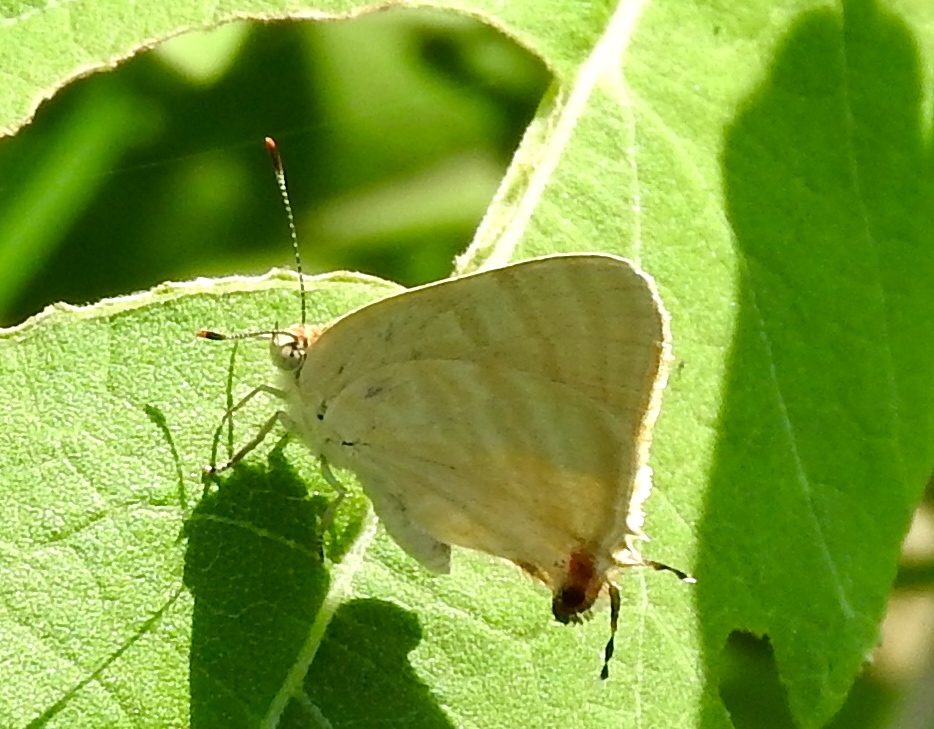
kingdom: Animalia
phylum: Arthropoda
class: Insecta
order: Lepidoptera
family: Lycaenidae
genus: Dolymorpha
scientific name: Dolymorpha jada
